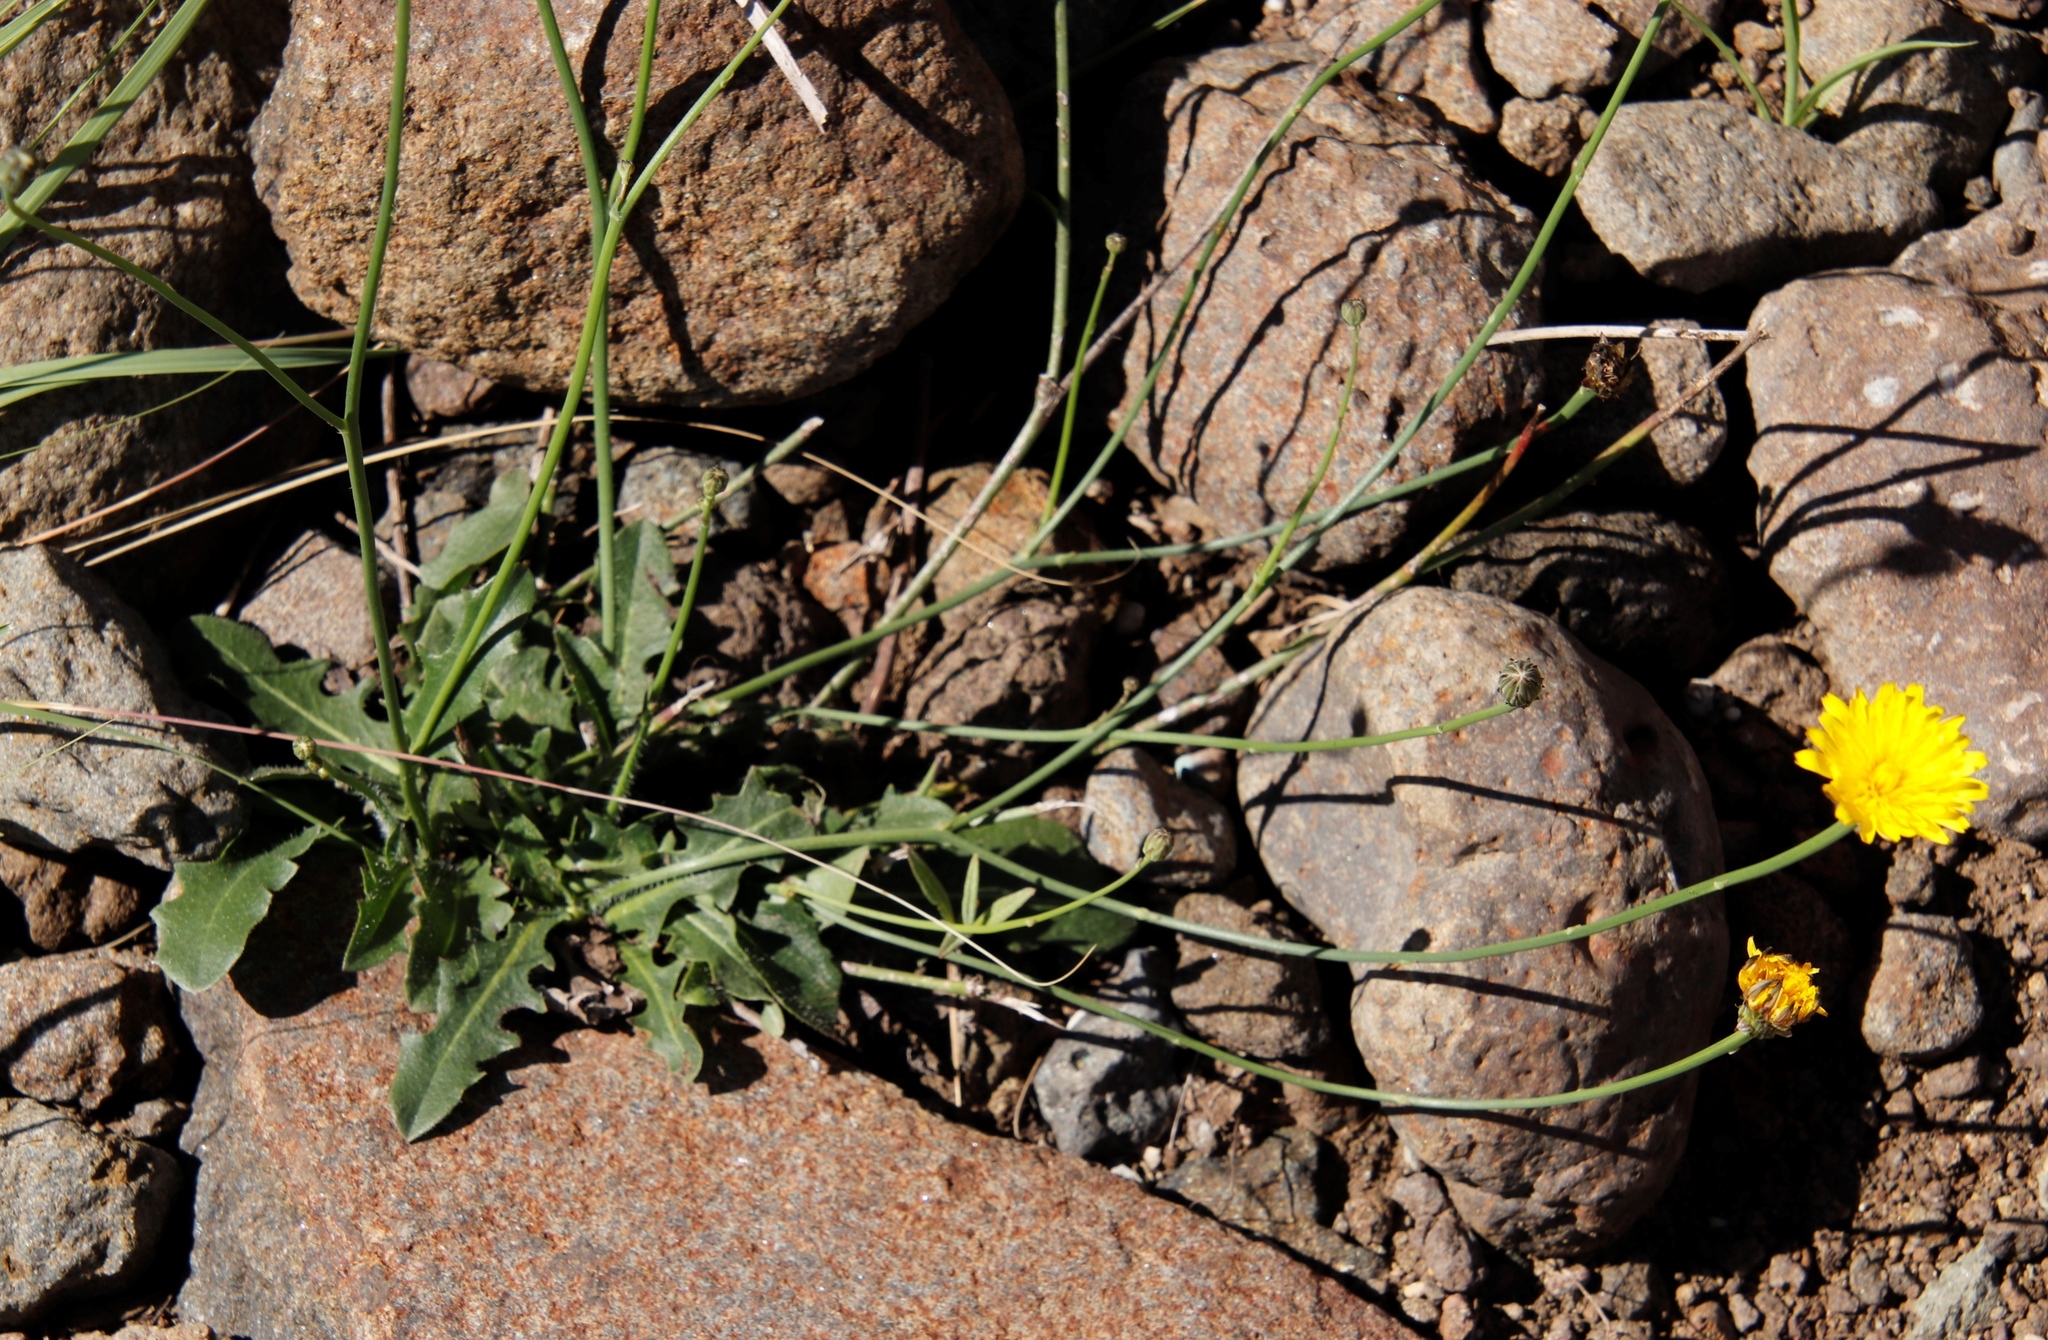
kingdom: Plantae
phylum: Tracheophyta
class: Magnoliopsida
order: Asterales
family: Asteraceae
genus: Hypochaeris
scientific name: Hypochaeris radicata
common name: Flatweed
